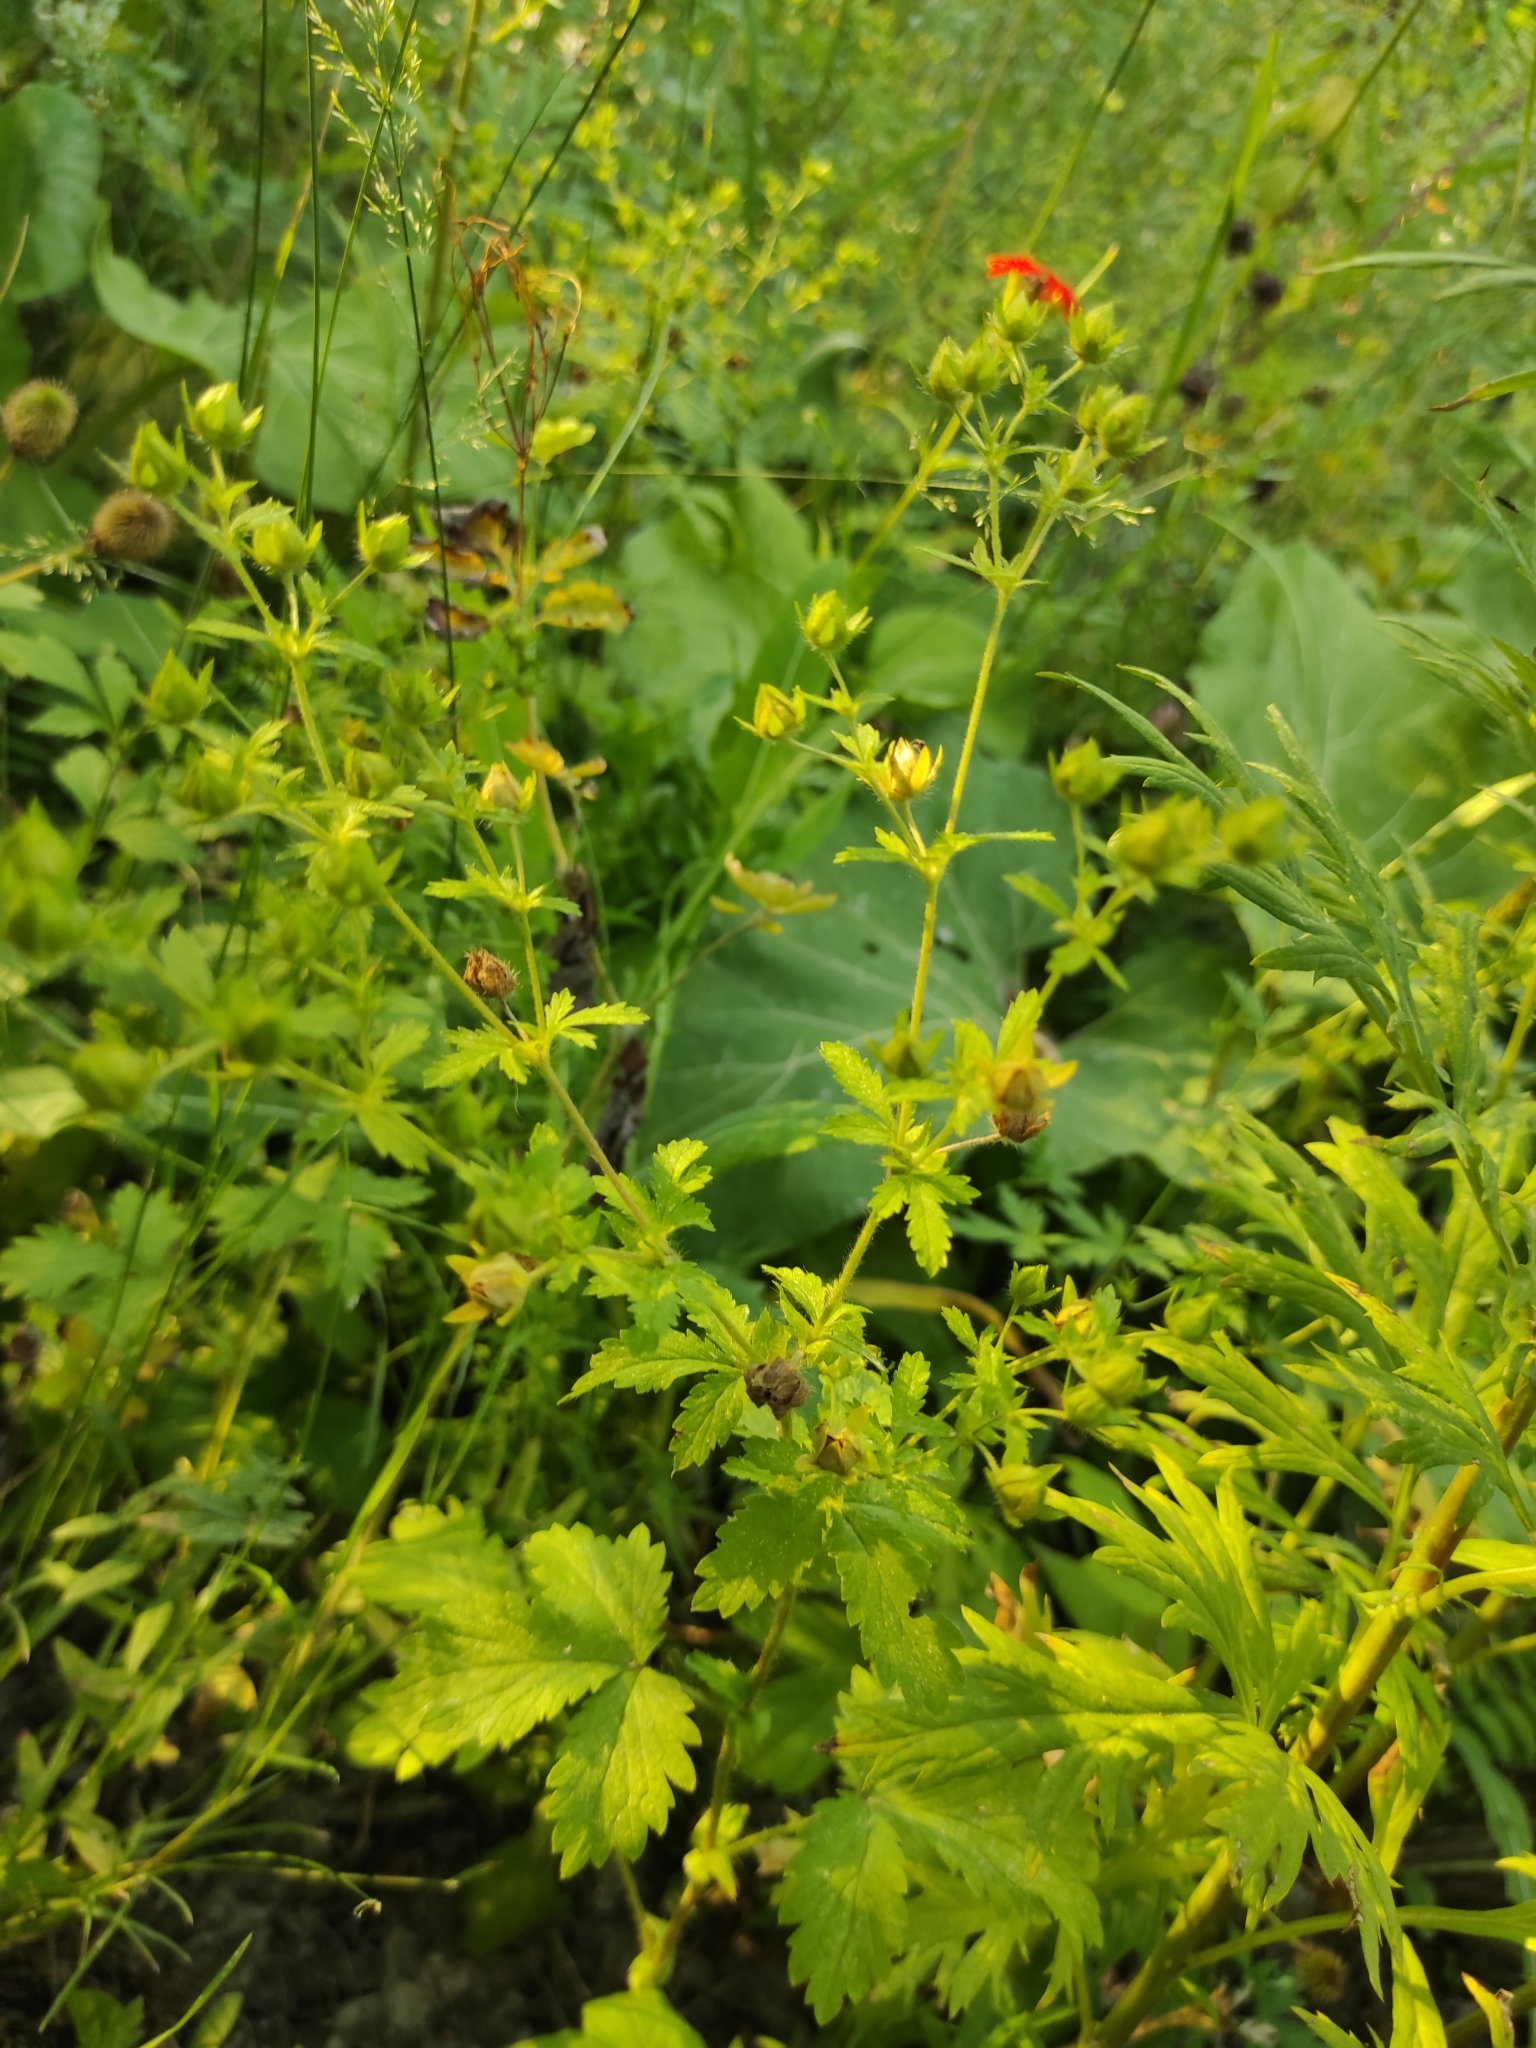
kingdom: Plantae
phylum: Tracheophyta
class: Magnoliopsida
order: Rosales
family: Rosaceae
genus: Potentilla
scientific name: Potentilla norvegica
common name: Ternate-leaved cinquefoil
